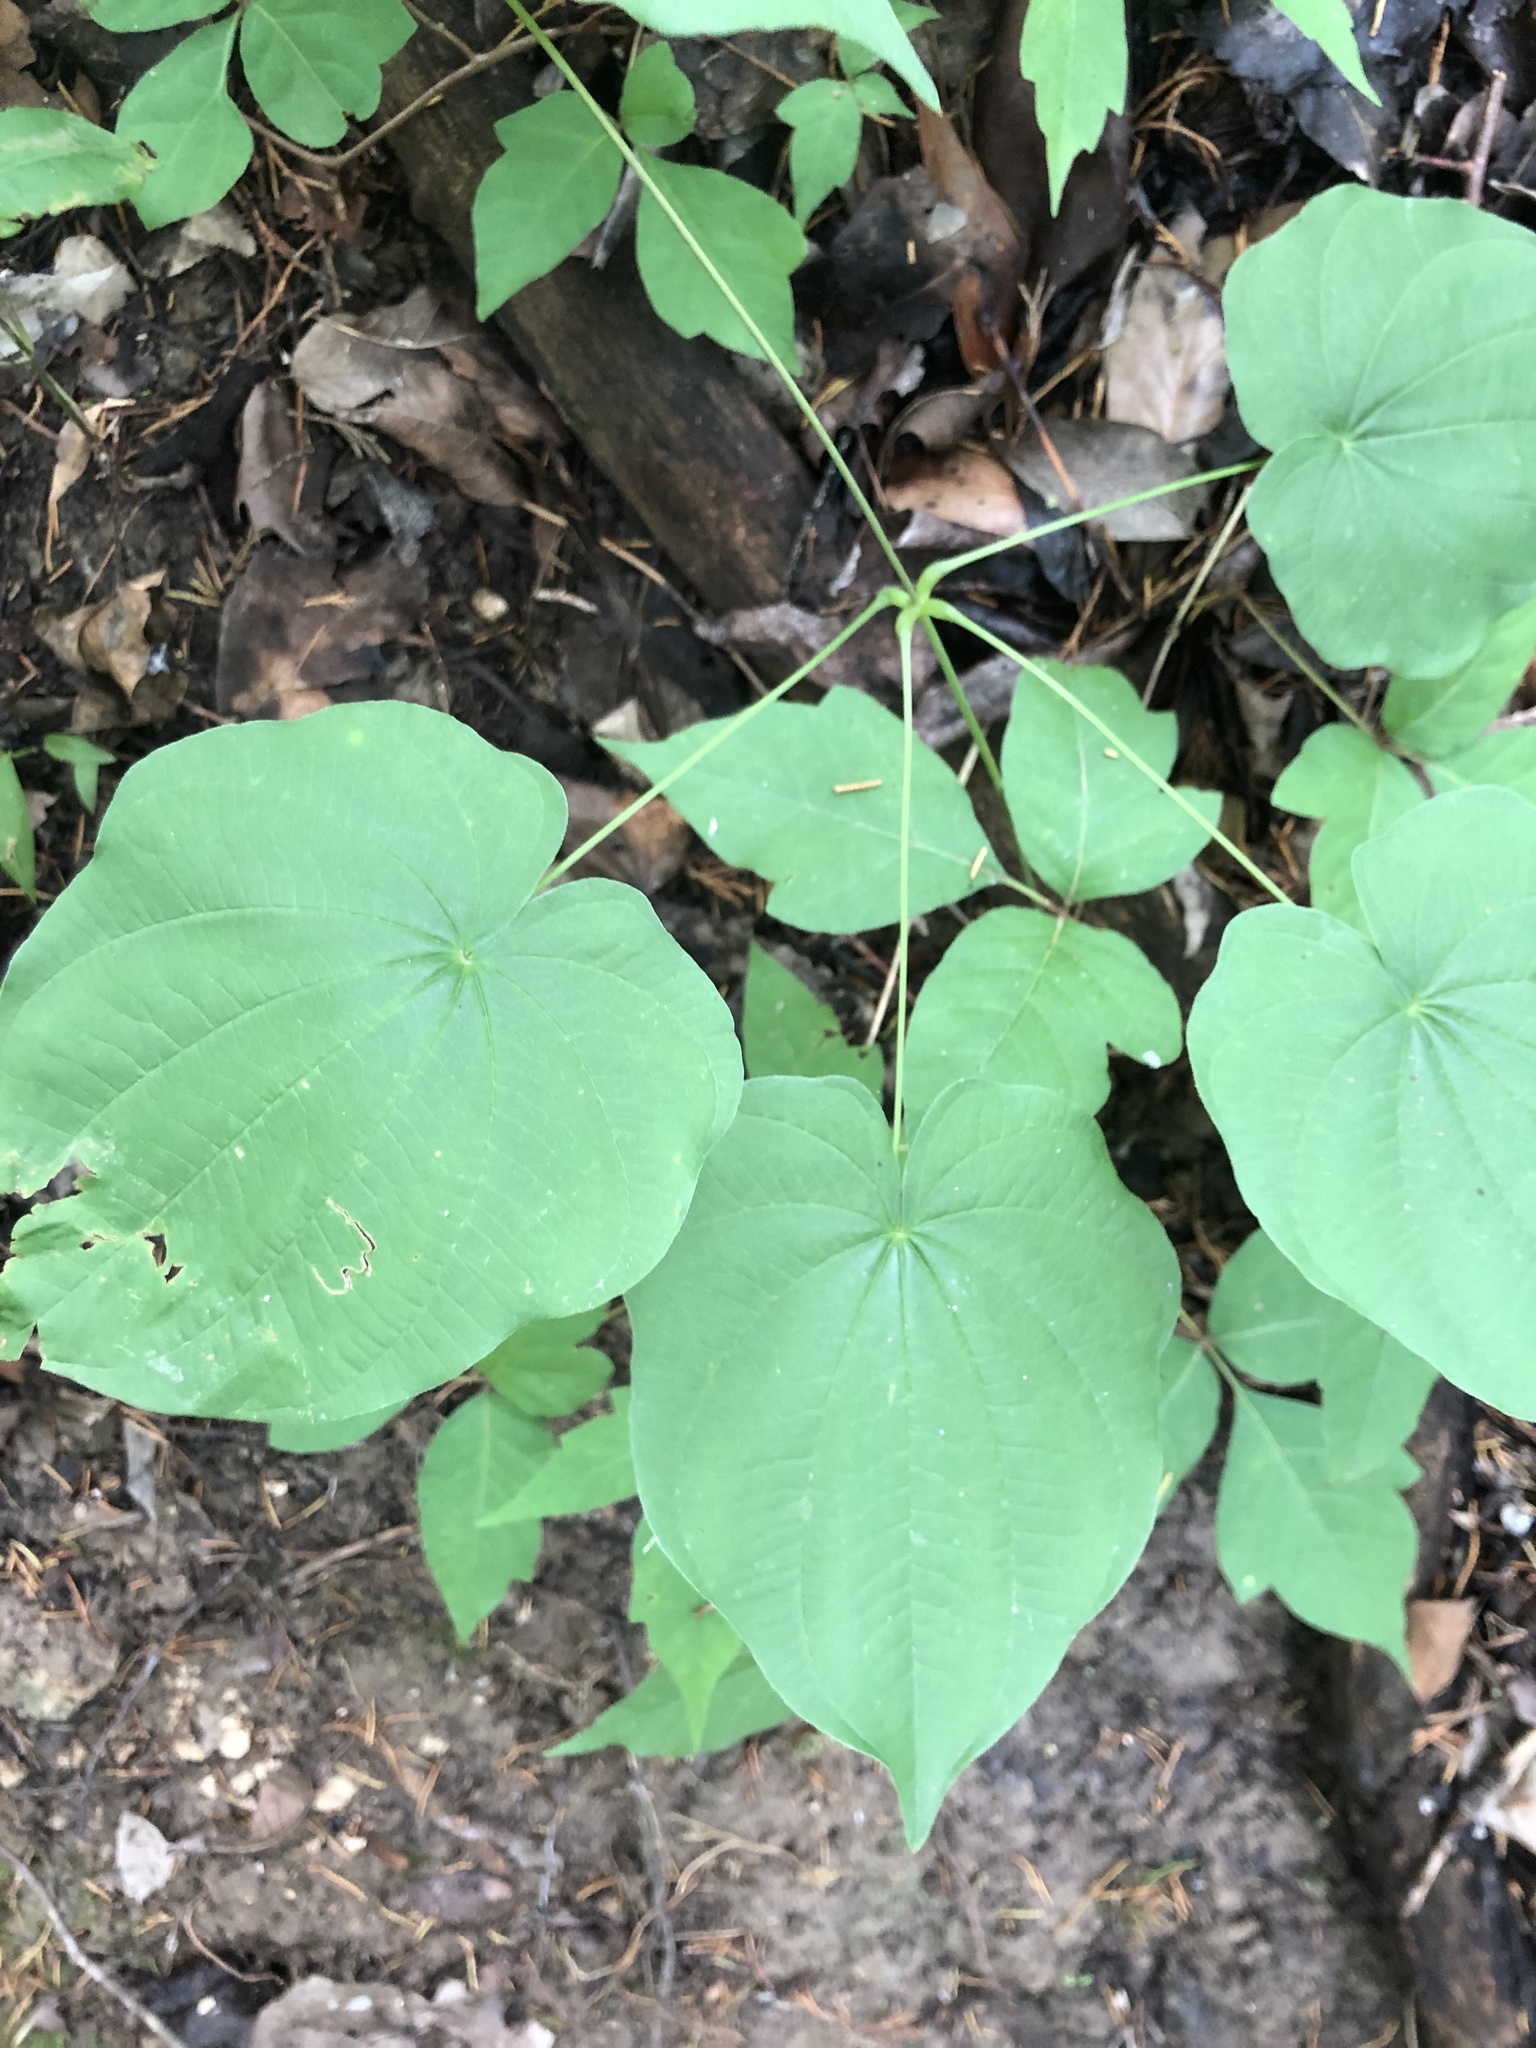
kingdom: Plantae
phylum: Tracheophyta
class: Liliopsida
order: Dioscoreales
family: Dioscoreaceae
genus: Dioscorea
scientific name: Dioscorea villosa
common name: Wild yam
